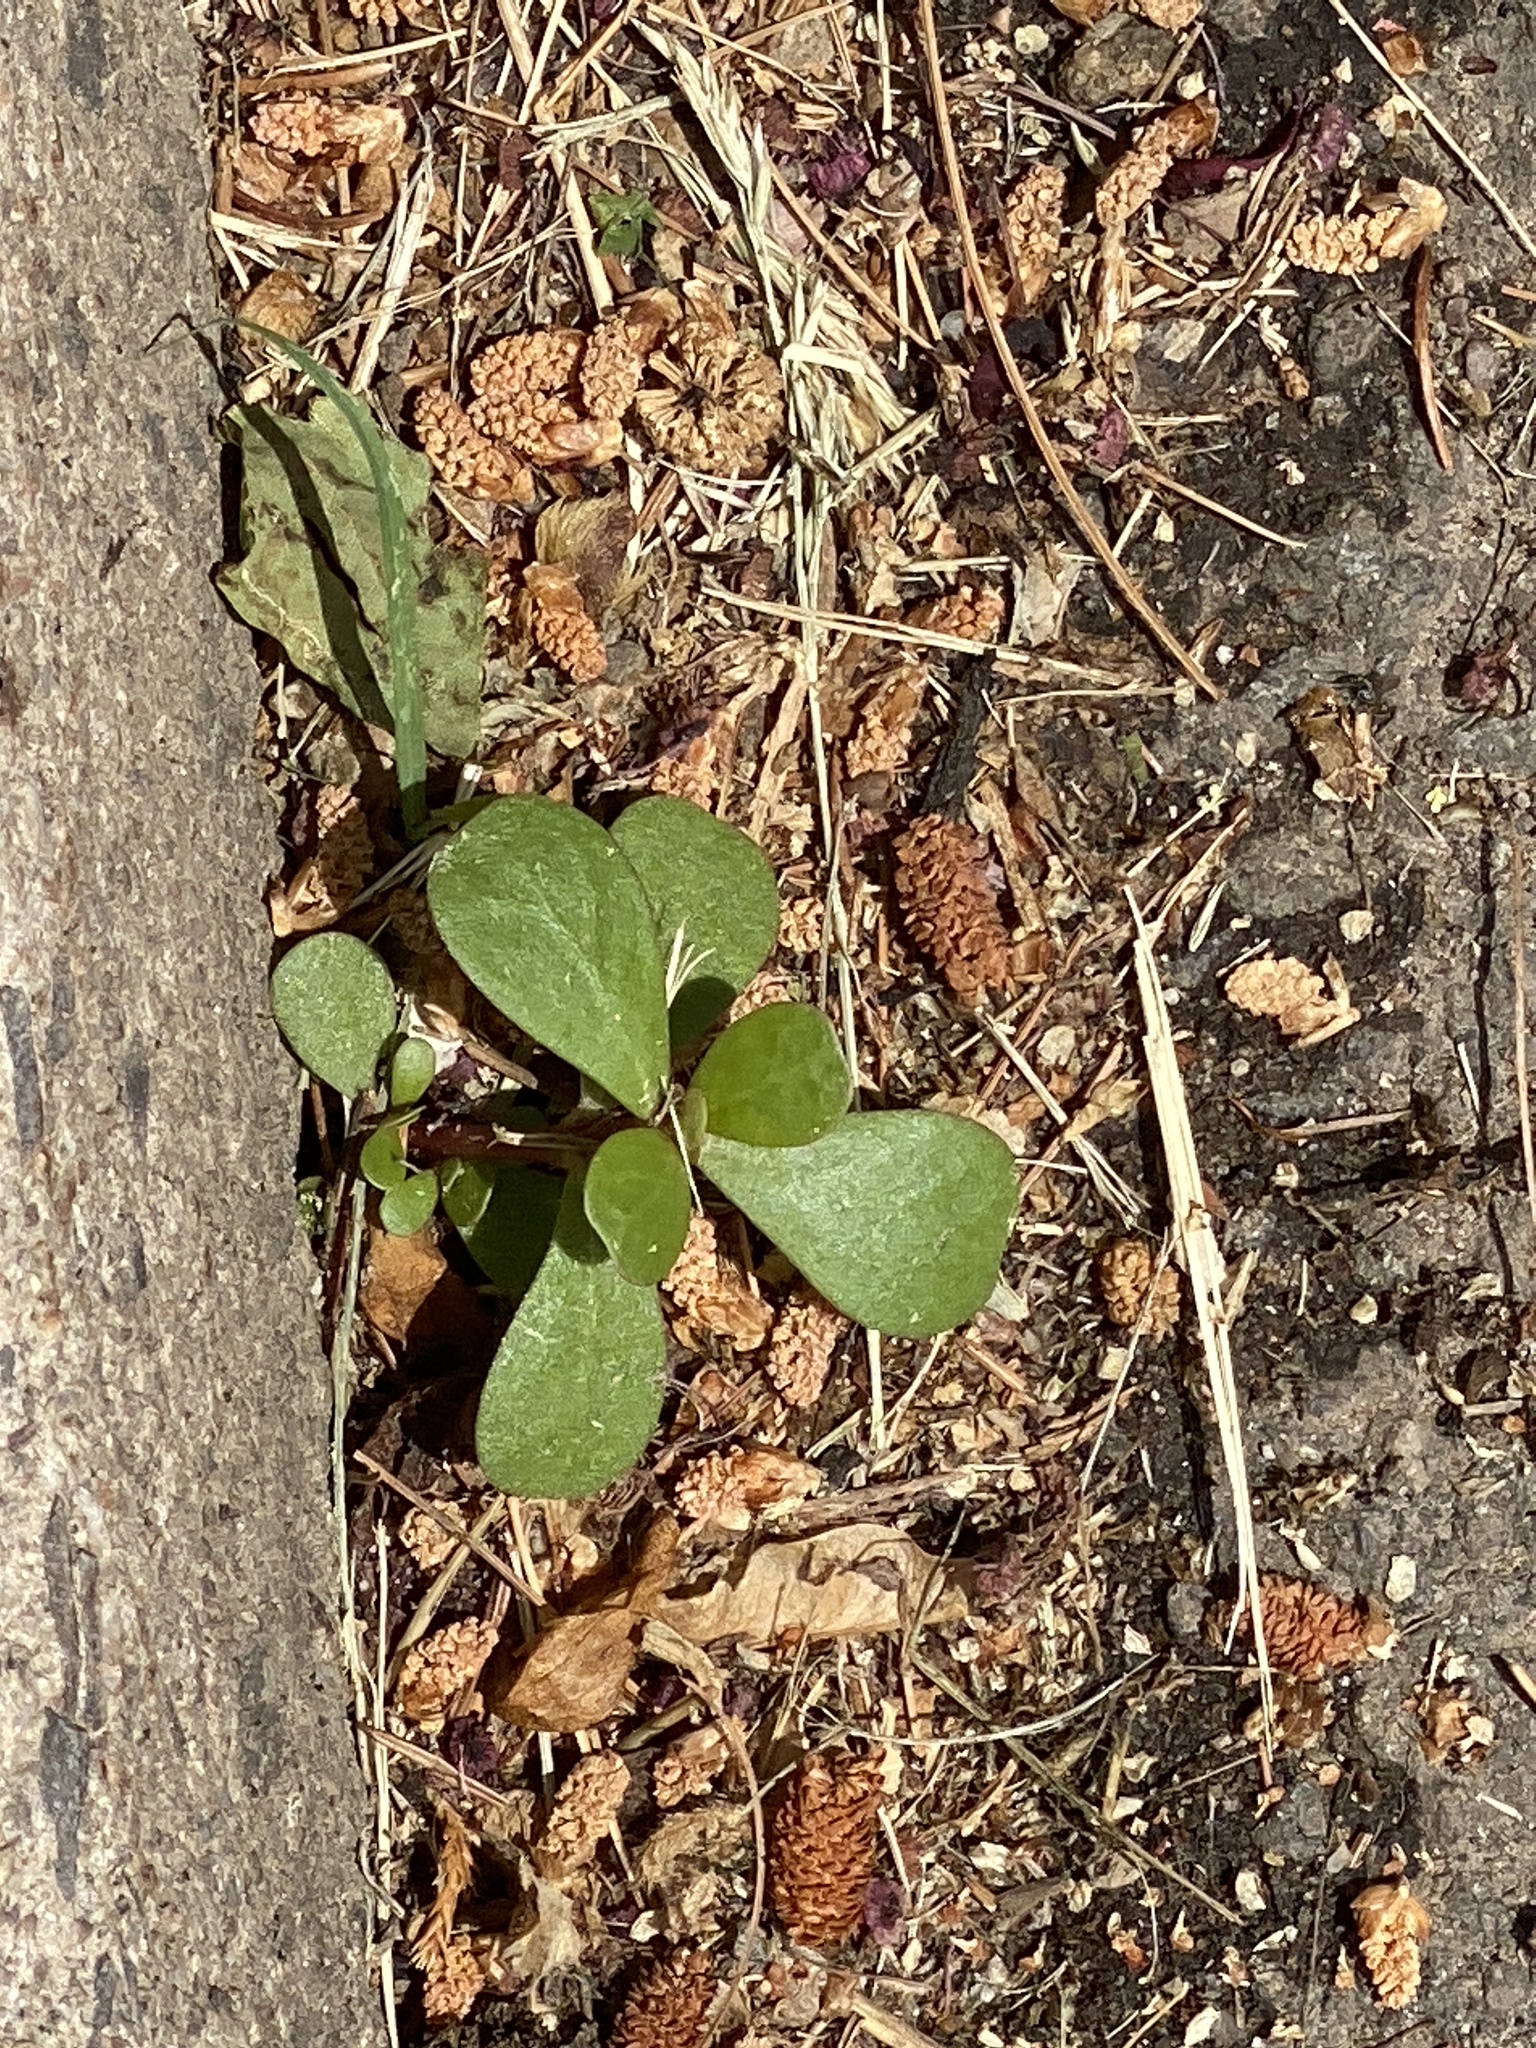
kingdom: Plantae
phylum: Tracheophyta
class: Magnoliopsida
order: Caryophyllales
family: Portulacaceae
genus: Portulaca
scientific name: Portulaca oleracea
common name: Common purslane
